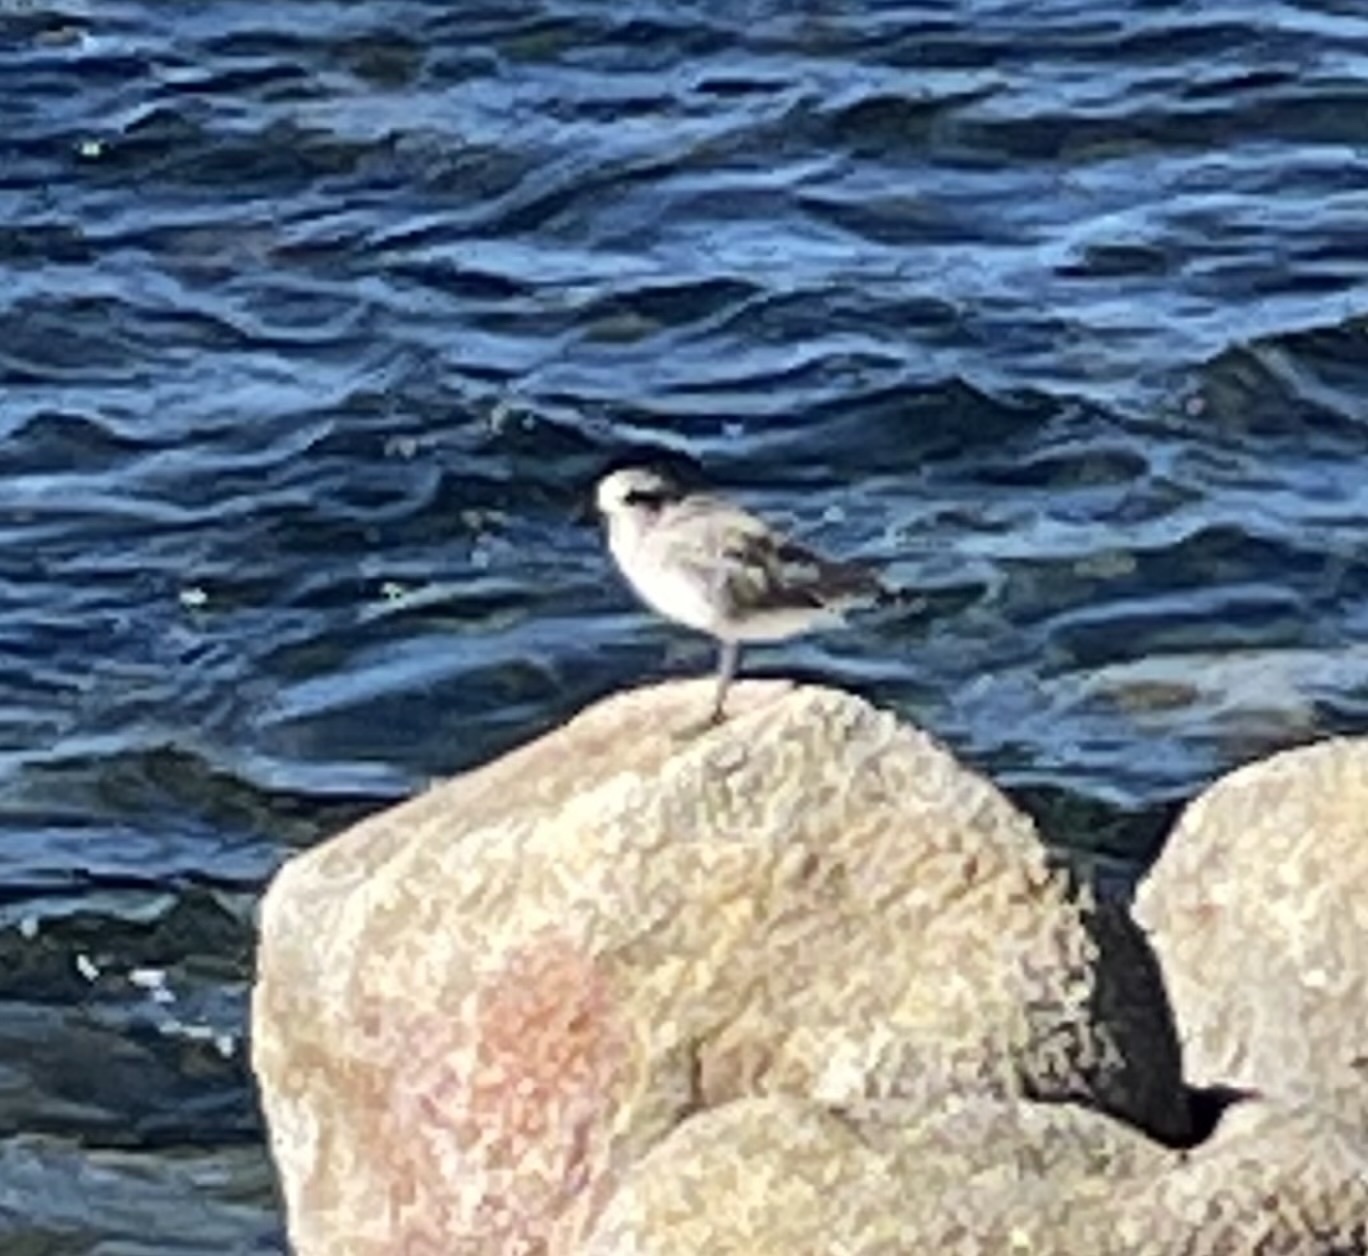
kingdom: Animalia
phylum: Chordata
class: Aves
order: Charadriiformes
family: Charadriidae
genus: Pluvialis
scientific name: Pluvialis squatarola
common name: Grey plover
